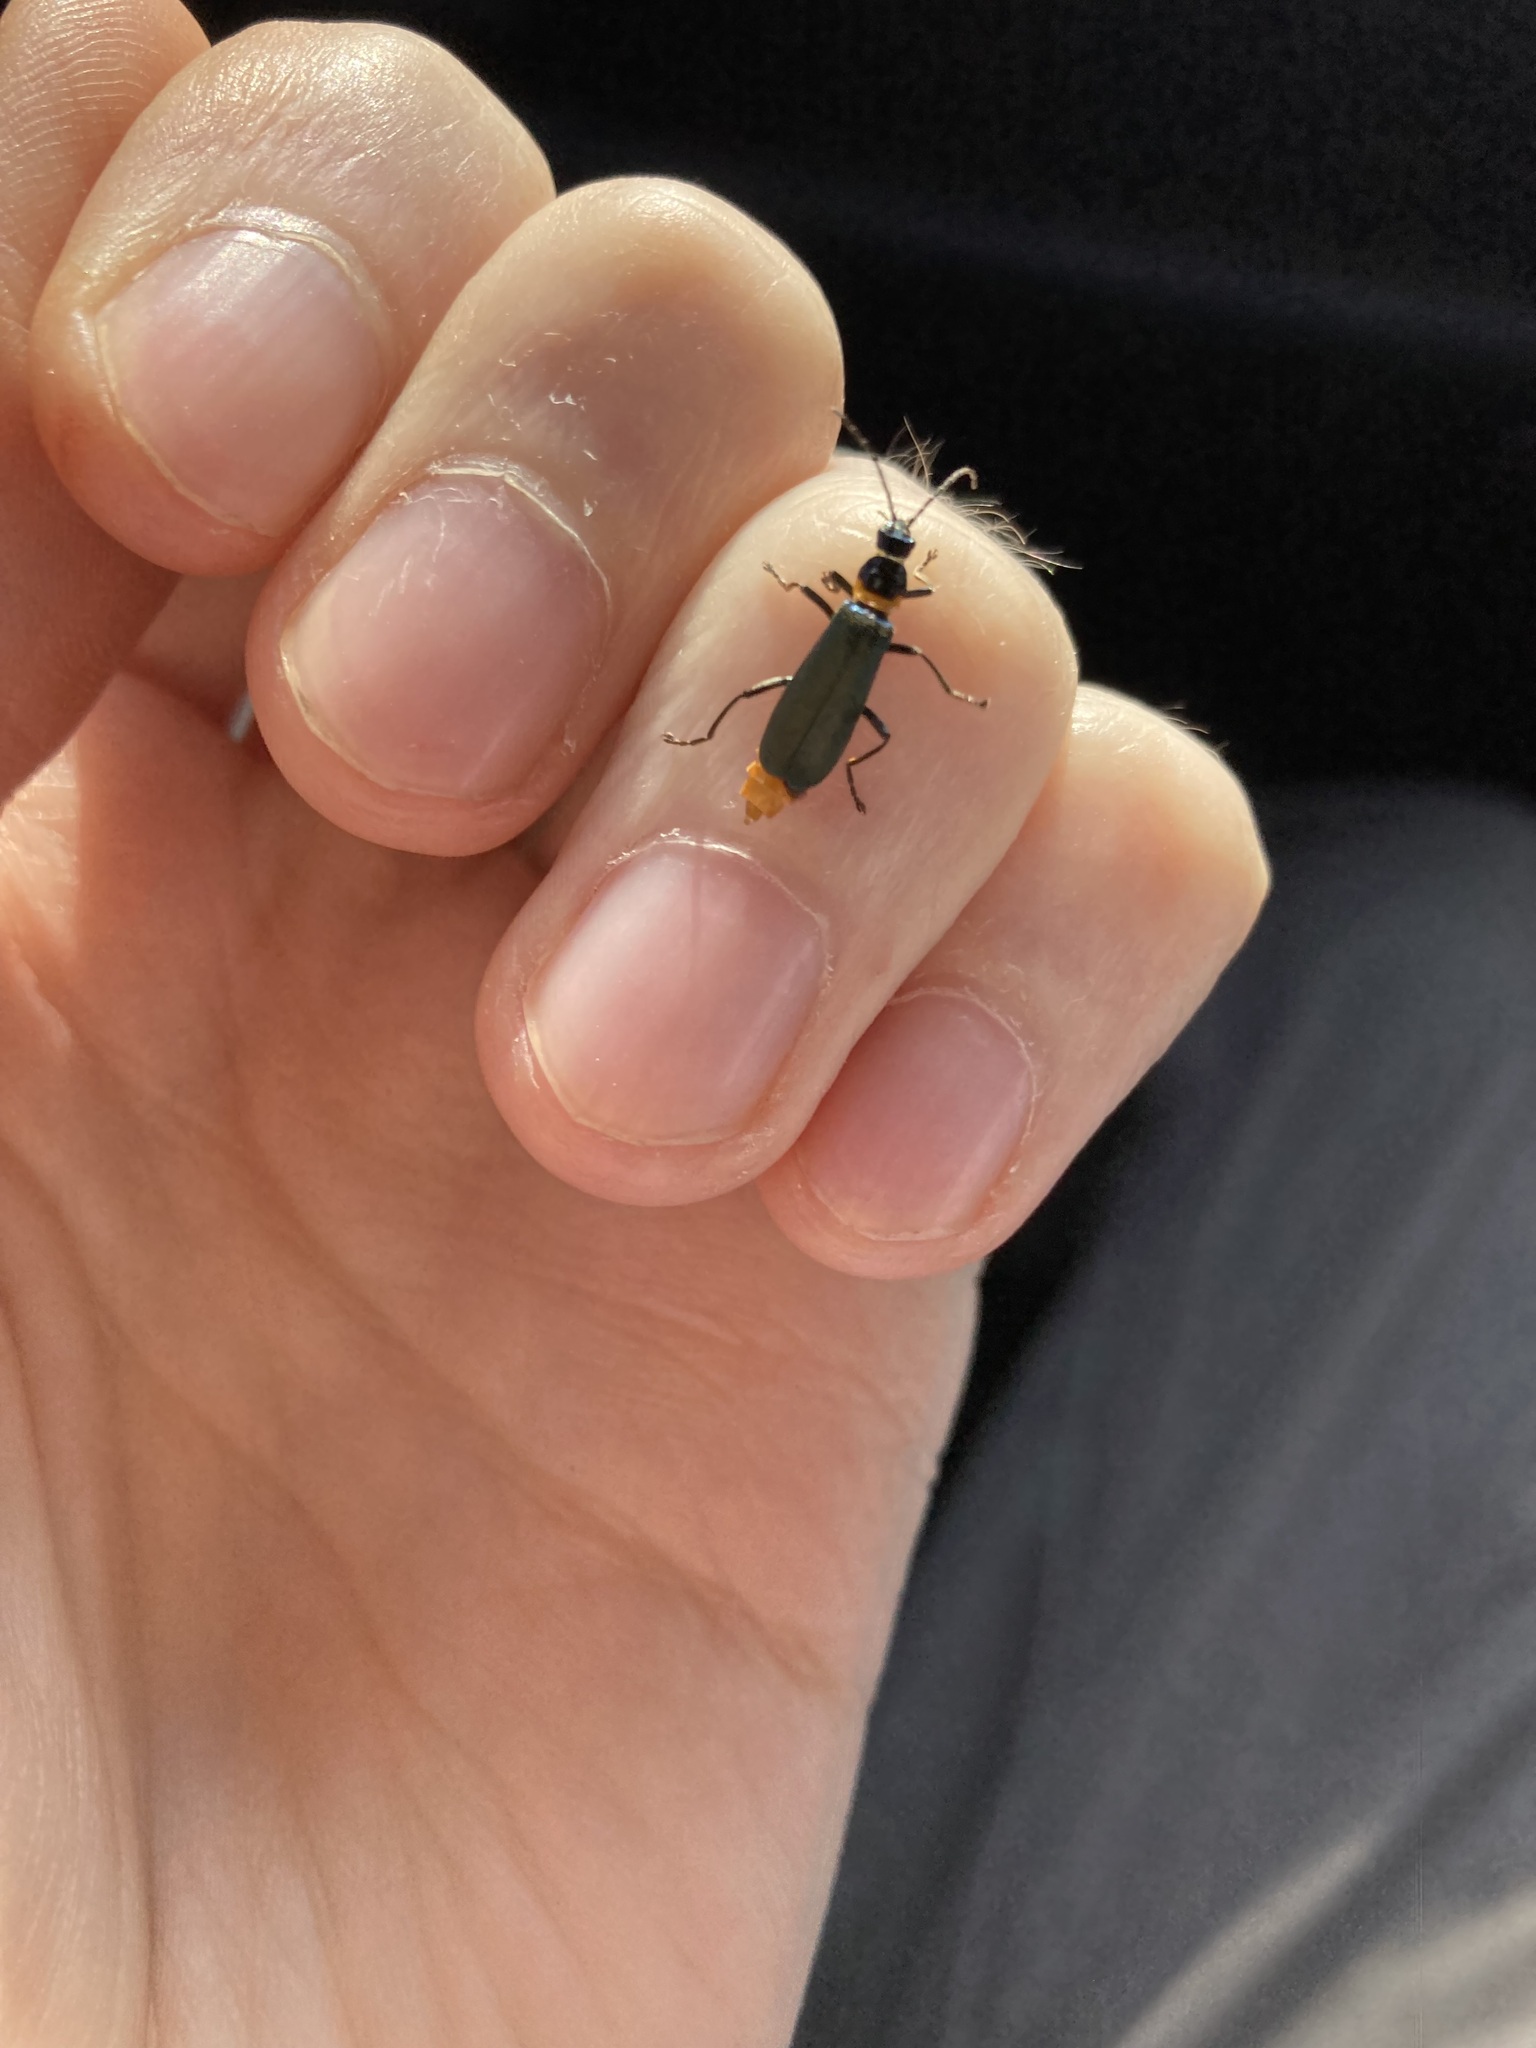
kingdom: Animalia
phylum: Arthropoda
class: Insecta
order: Coleoptera
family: Cantharidae
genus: Chauliognathus
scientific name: Chauliognathus
